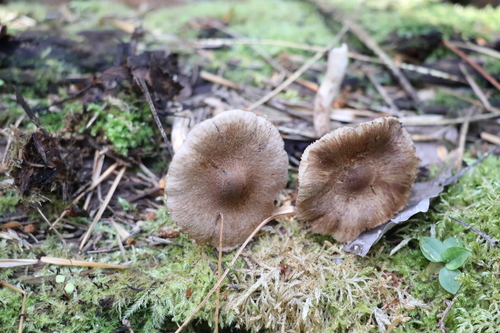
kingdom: Fungi
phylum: Basidiomycota
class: Agaricomycetes
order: Agaricales
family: Inocybaceae
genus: Inocybe
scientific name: Inocybe amethystina
